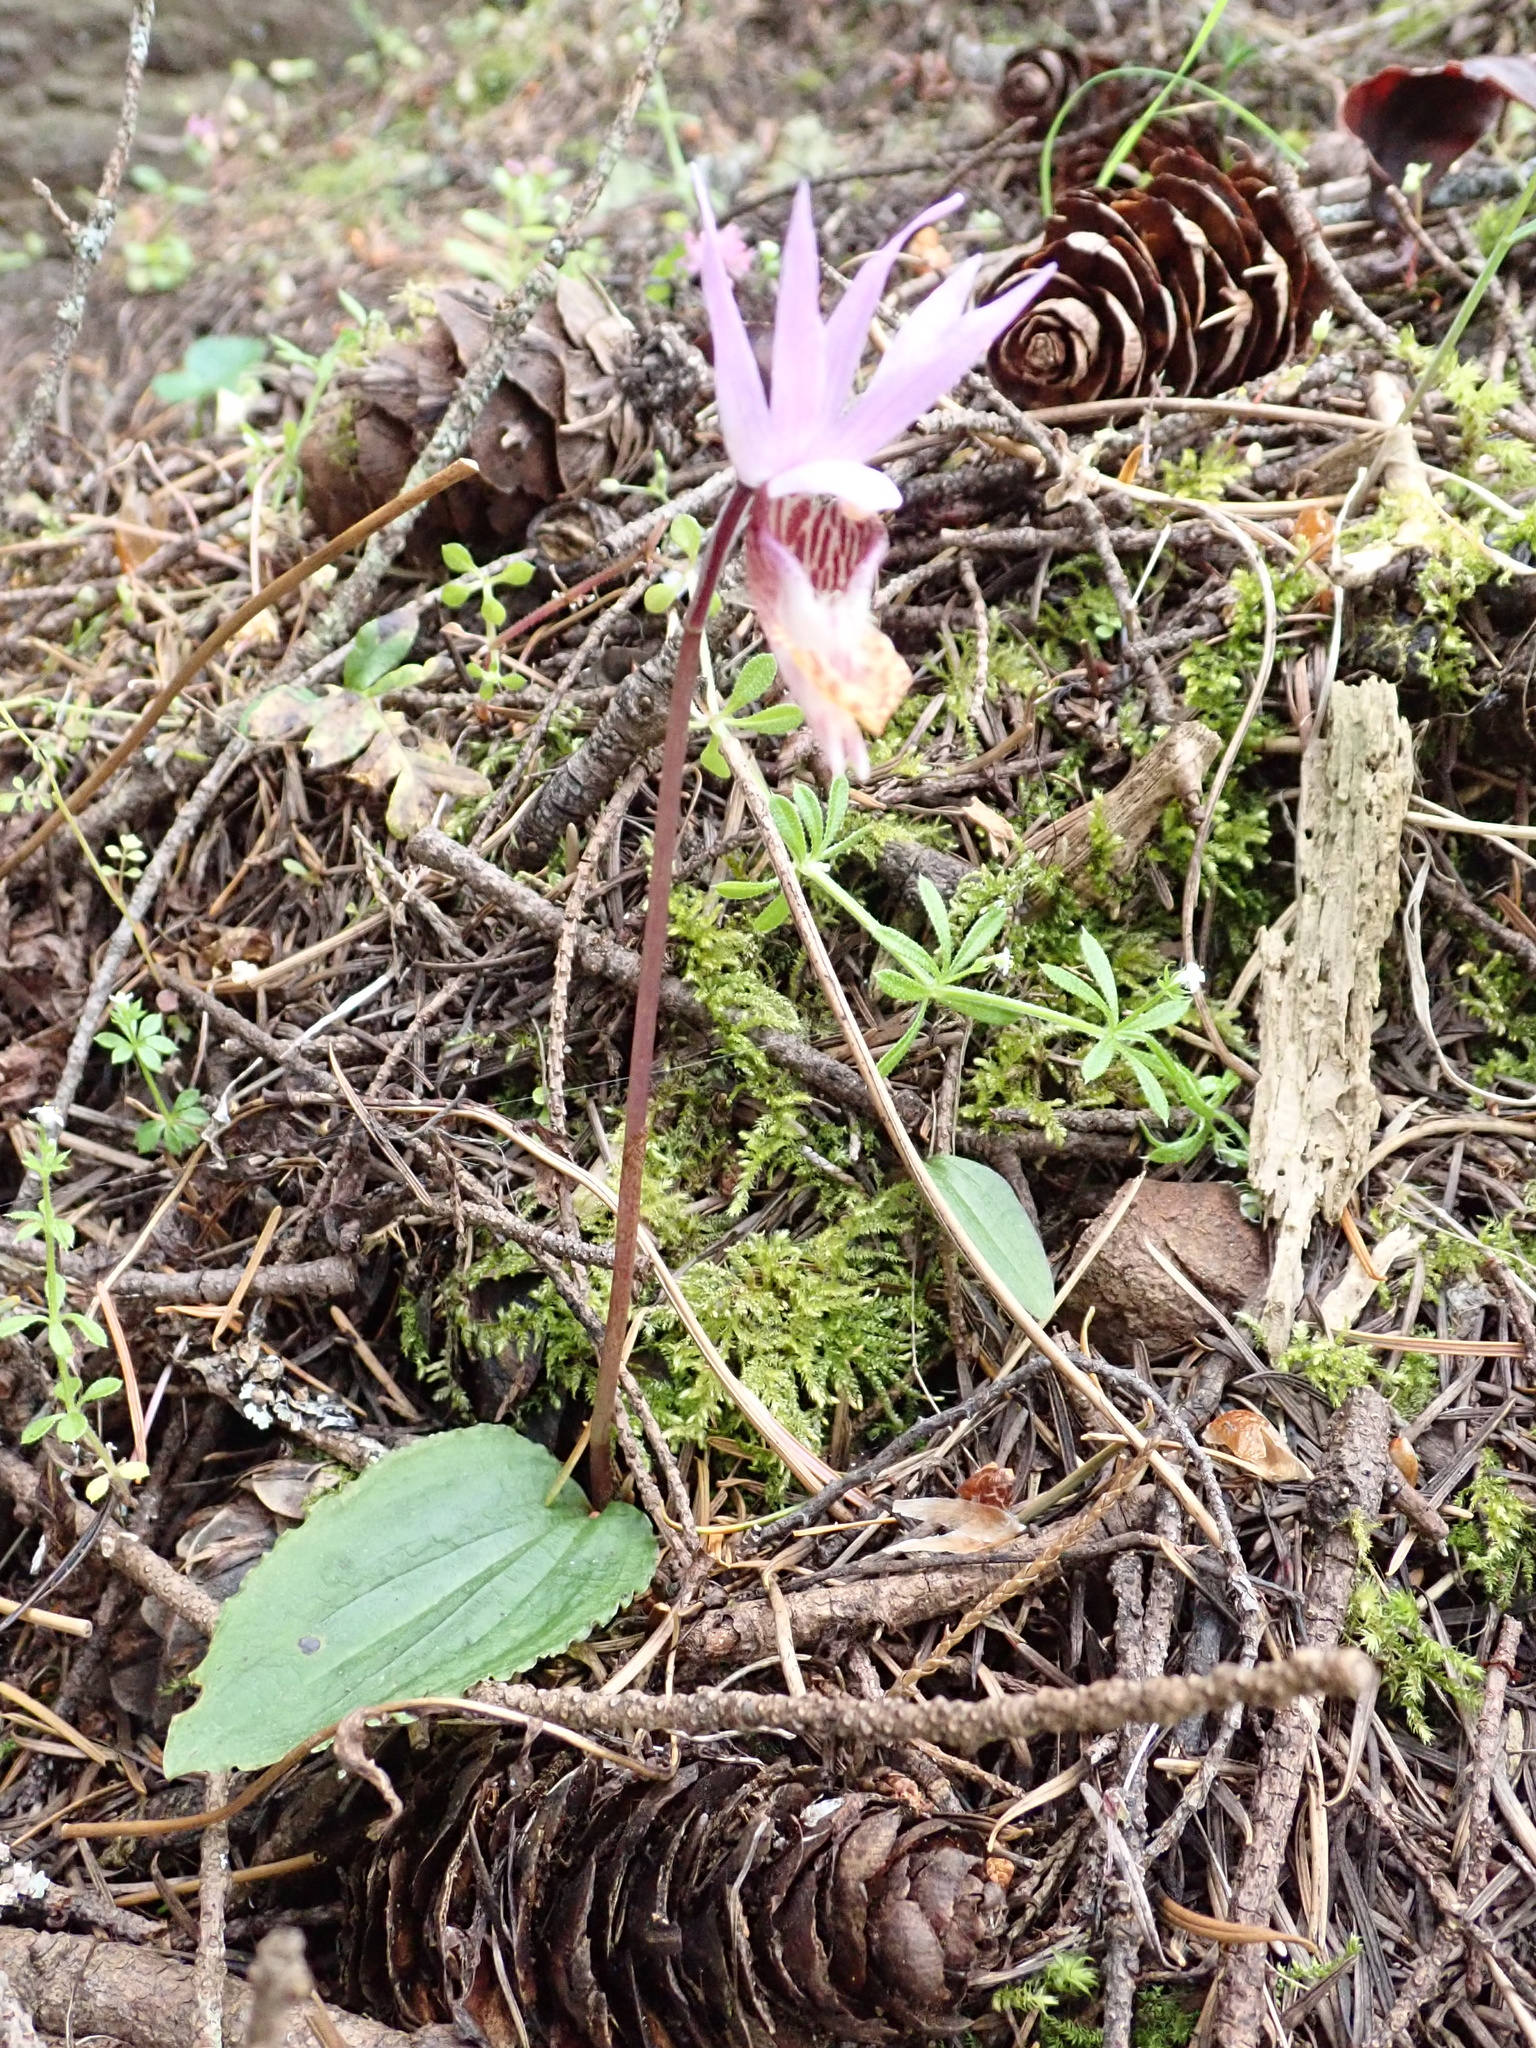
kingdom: Plantae
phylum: Tracheophyta
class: Liliopsida
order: Asparagales
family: Orchidaceae
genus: Calypso
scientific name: Calypso bulbosa
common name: Calypso
